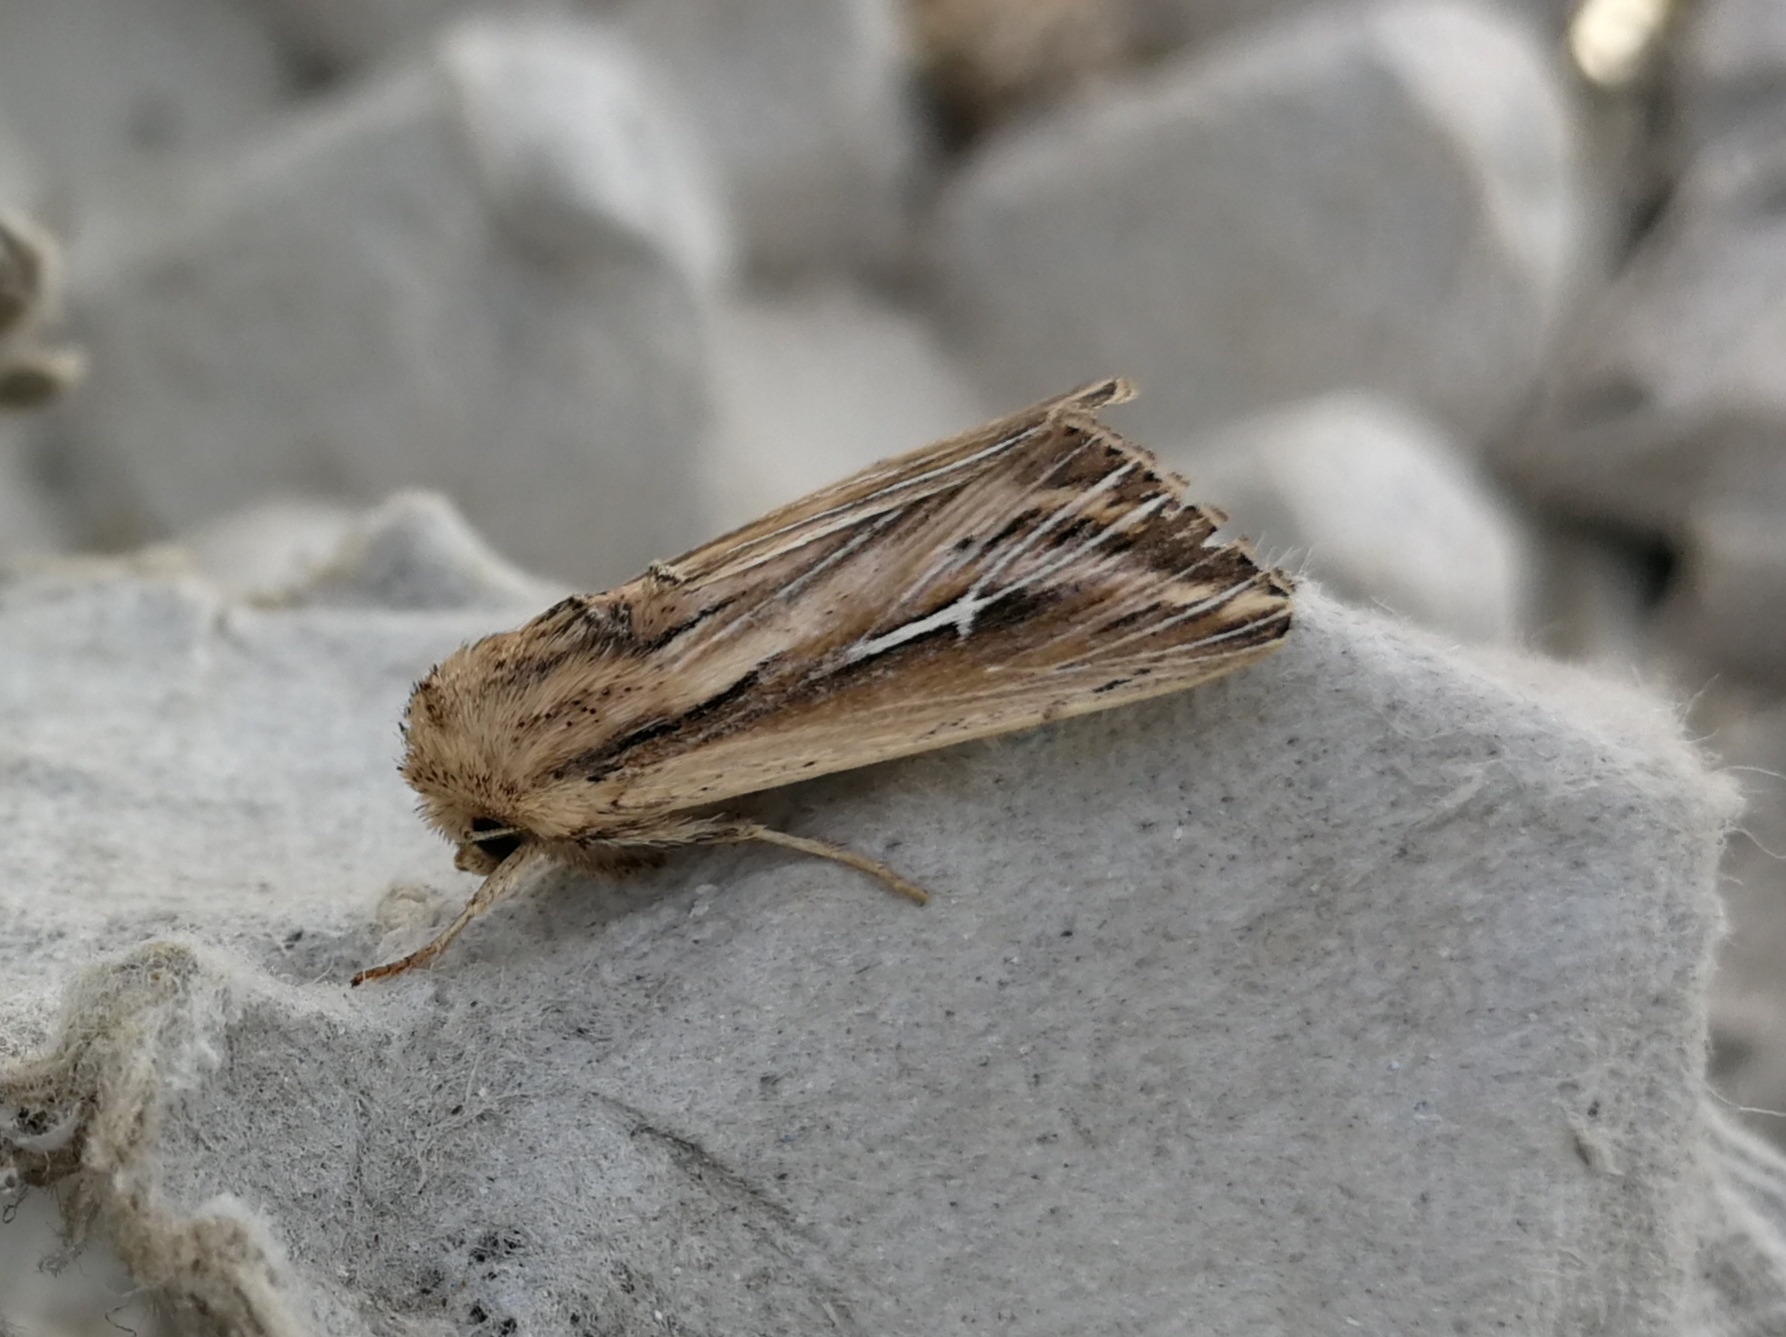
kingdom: Animalia
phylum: Arthropoda
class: Insecta
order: Lepidoptera
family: Noctuidae
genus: Mythimna
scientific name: Mythimna l-album
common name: L-album wainscot
